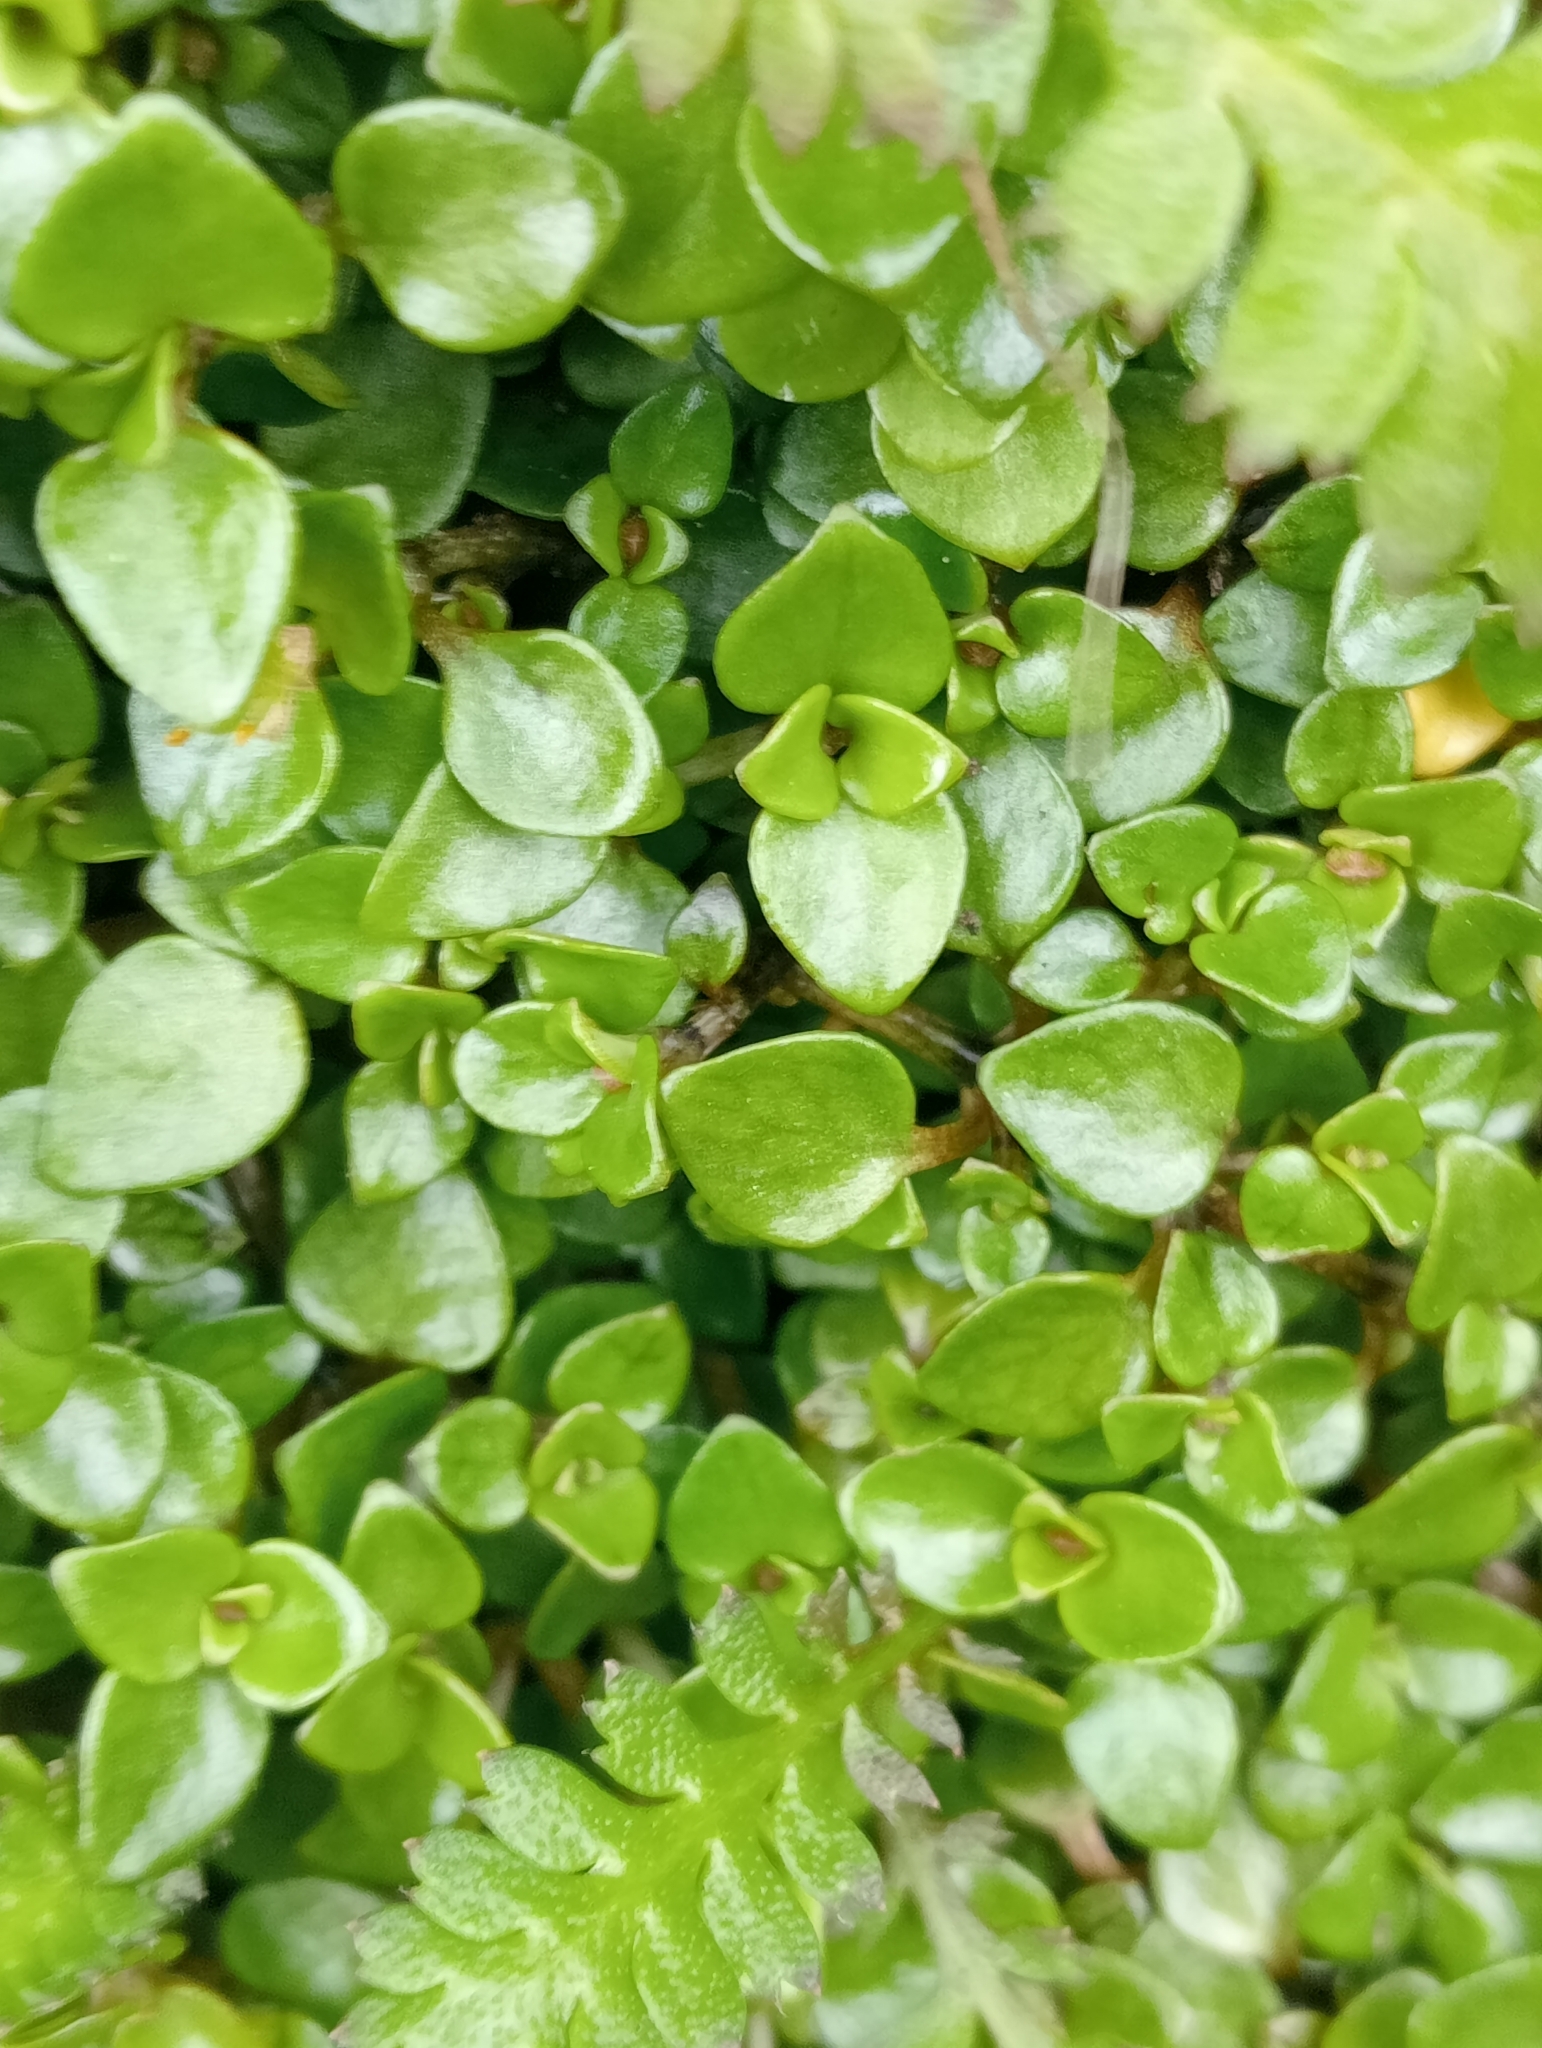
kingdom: Plantae
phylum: Tracheophyta
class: Magnoliopsida
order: Gentianales
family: Rubiaceae
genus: Nertera
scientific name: Nertera granadensis
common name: Beadplant
